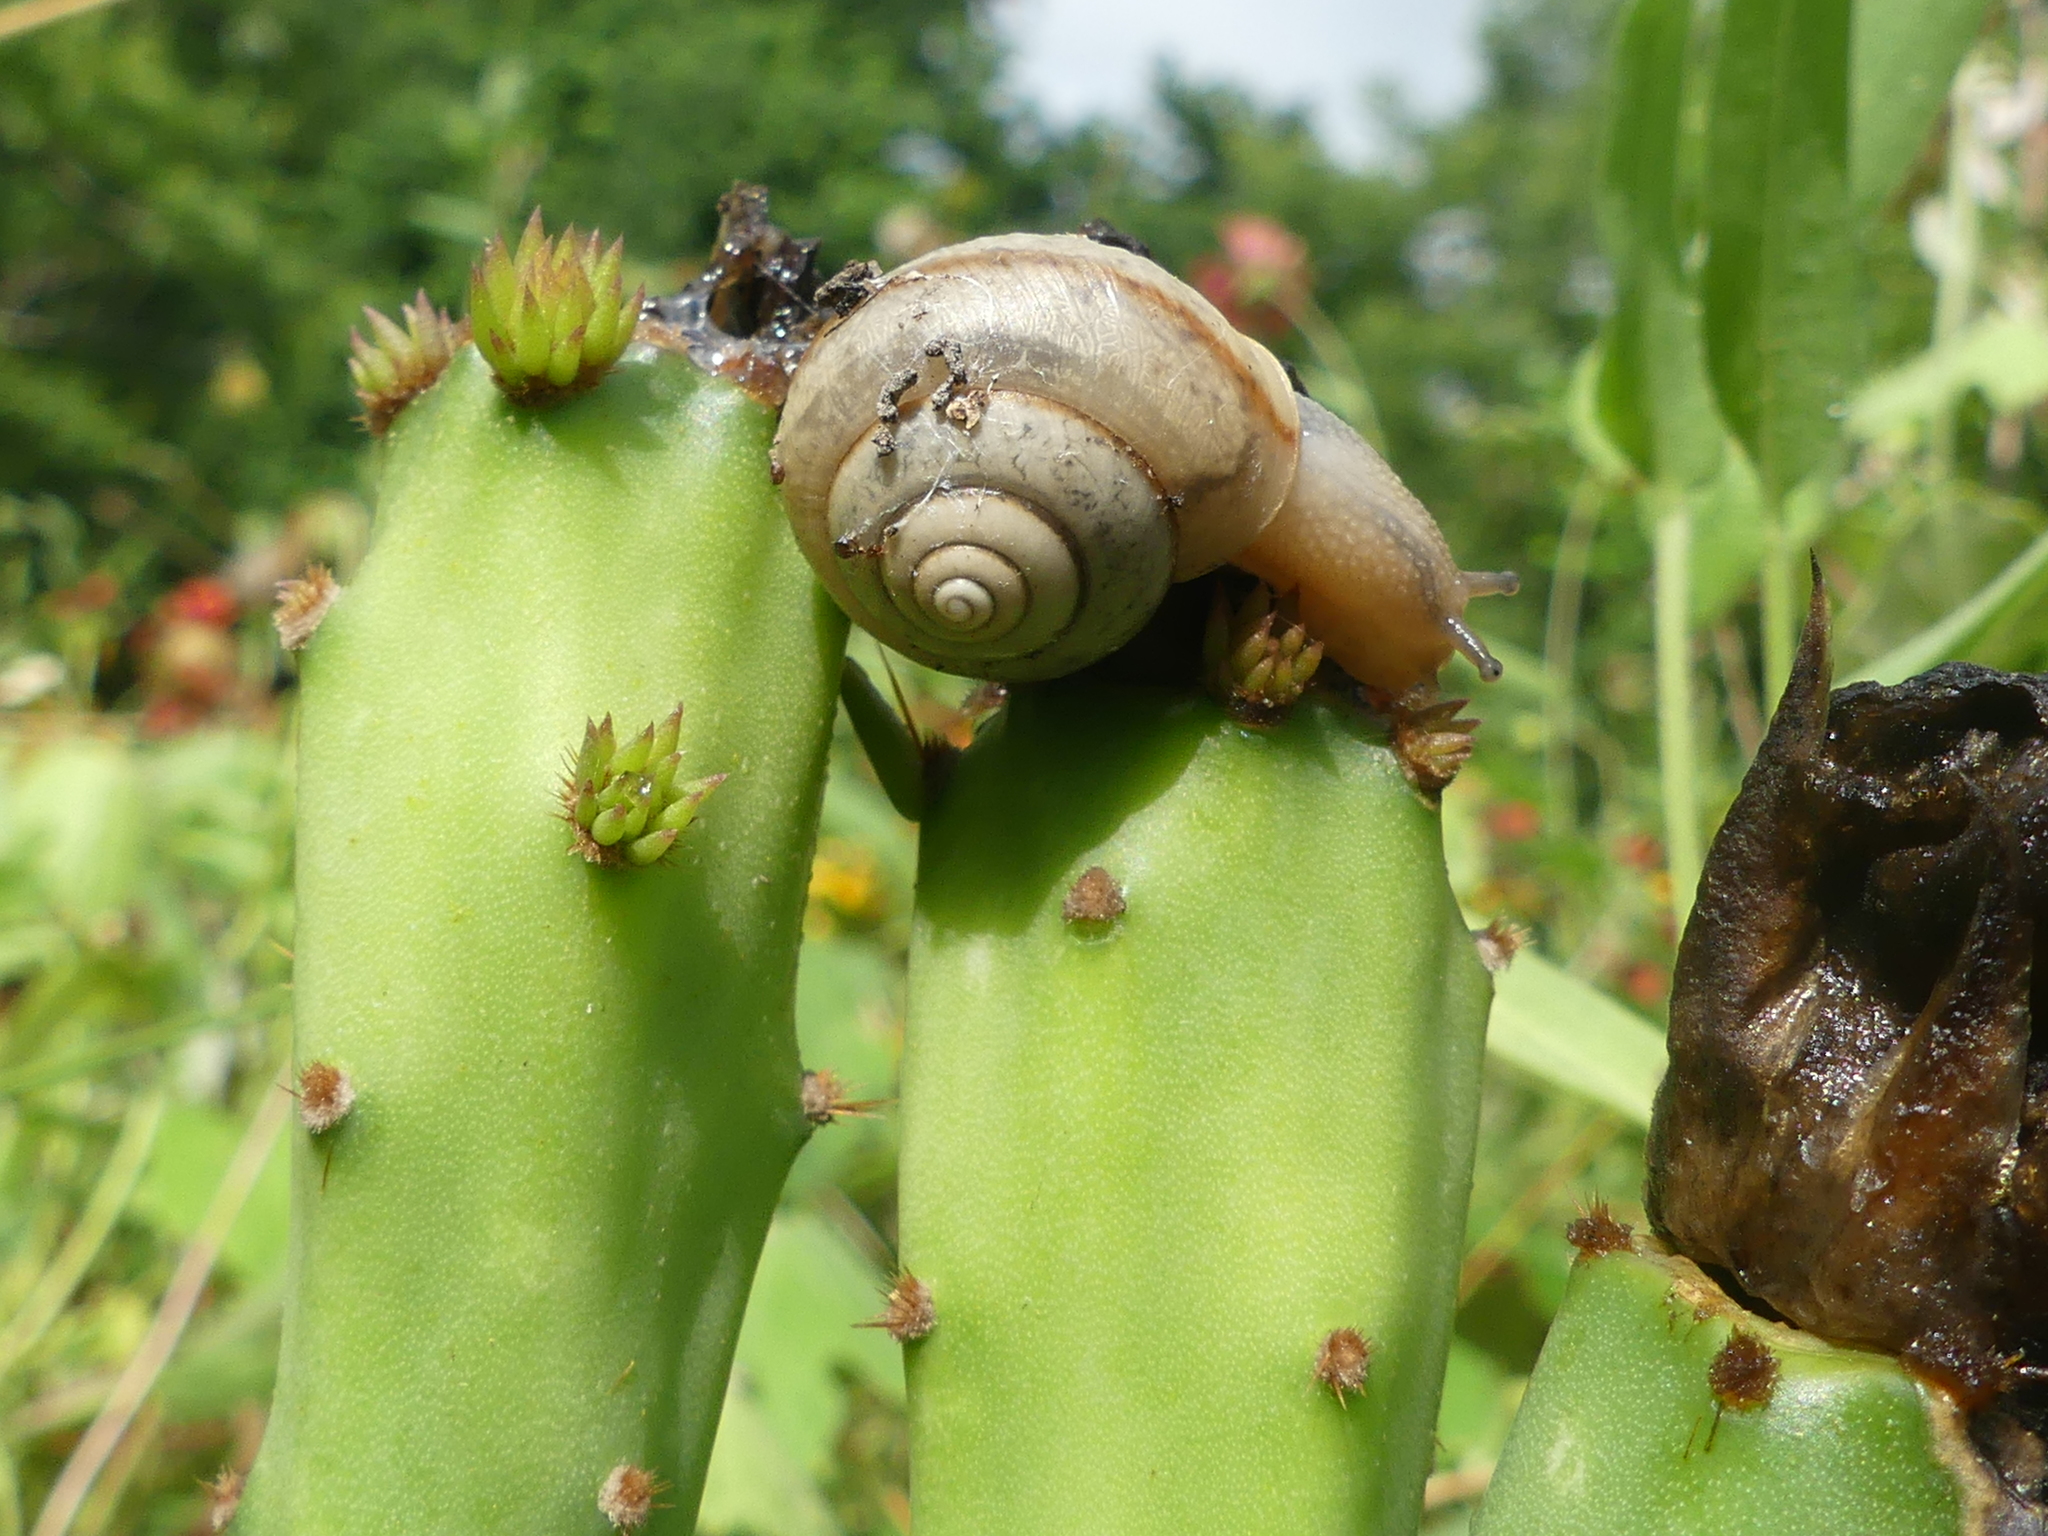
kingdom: Animalia
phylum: Mollusca
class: Gastropoda
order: Stylommatophora
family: Camaenidae
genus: Bradybaena
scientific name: Bradybaena similaris
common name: Asian trampsnail
